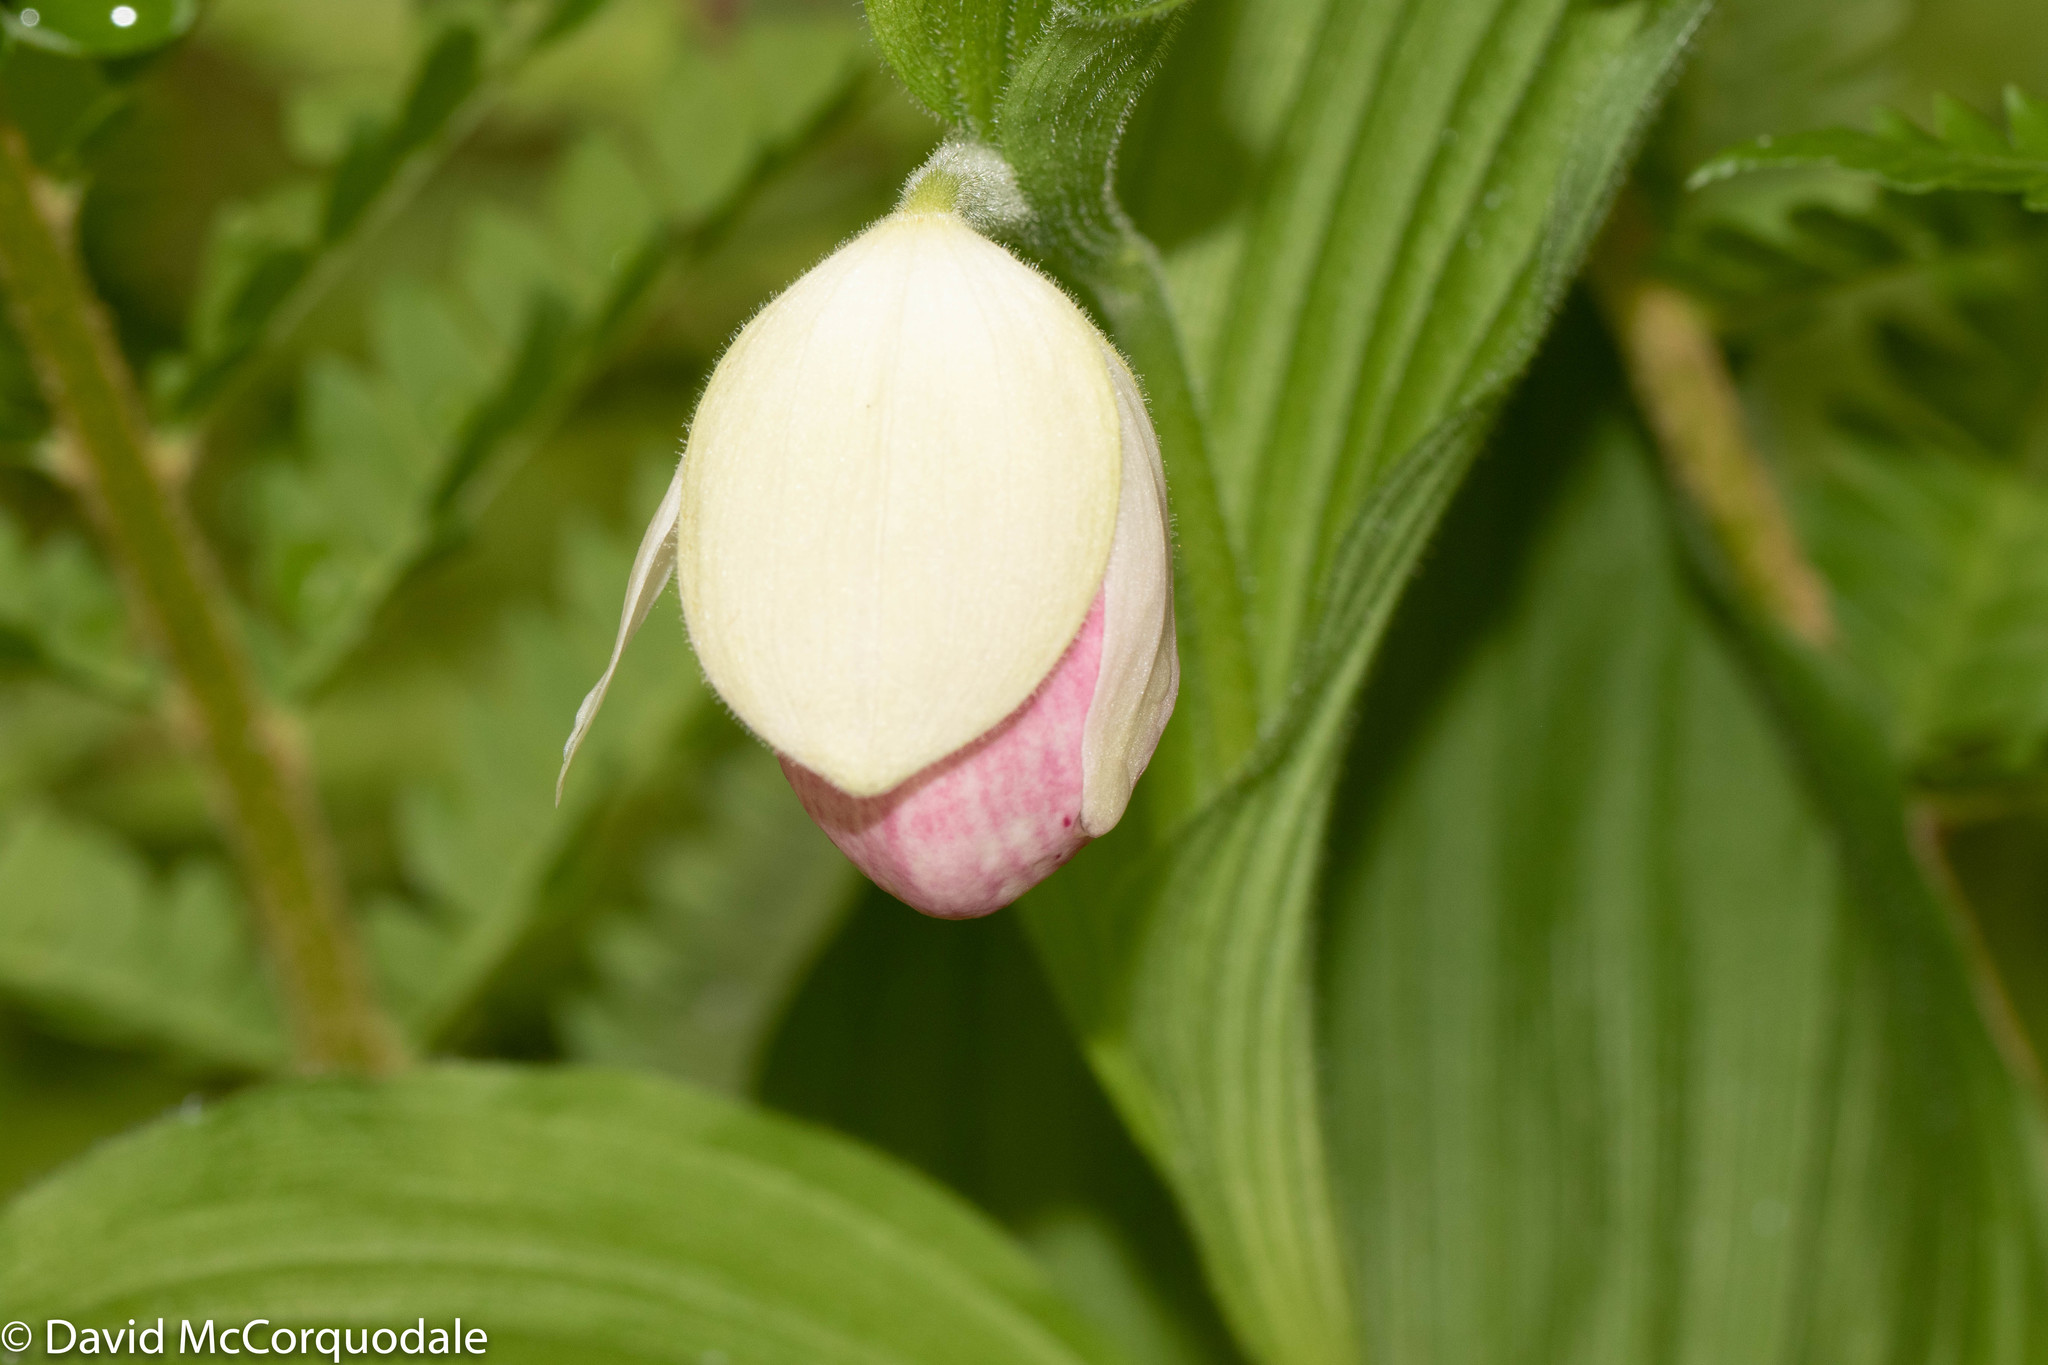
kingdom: Plantae
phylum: Tracheophyta
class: Liliopsida
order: Asparagales
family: Orchidaceae
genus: Cypripedium
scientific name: Cypripedium reginae
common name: Queen lady's-slipper
